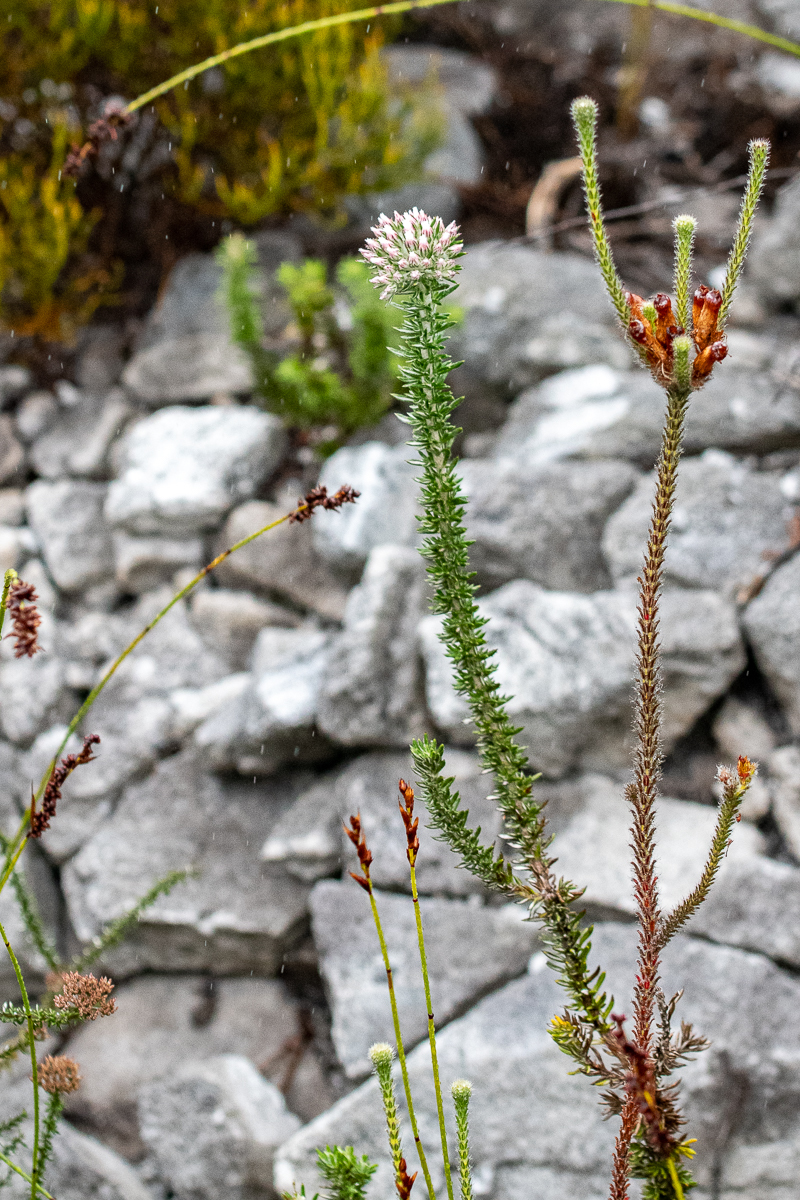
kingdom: Plantae
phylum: Tracheophyta
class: Magnoliopsida
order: Asterales
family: Asteraceae
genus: Metalasia
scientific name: Metalasia lichtensteinii
